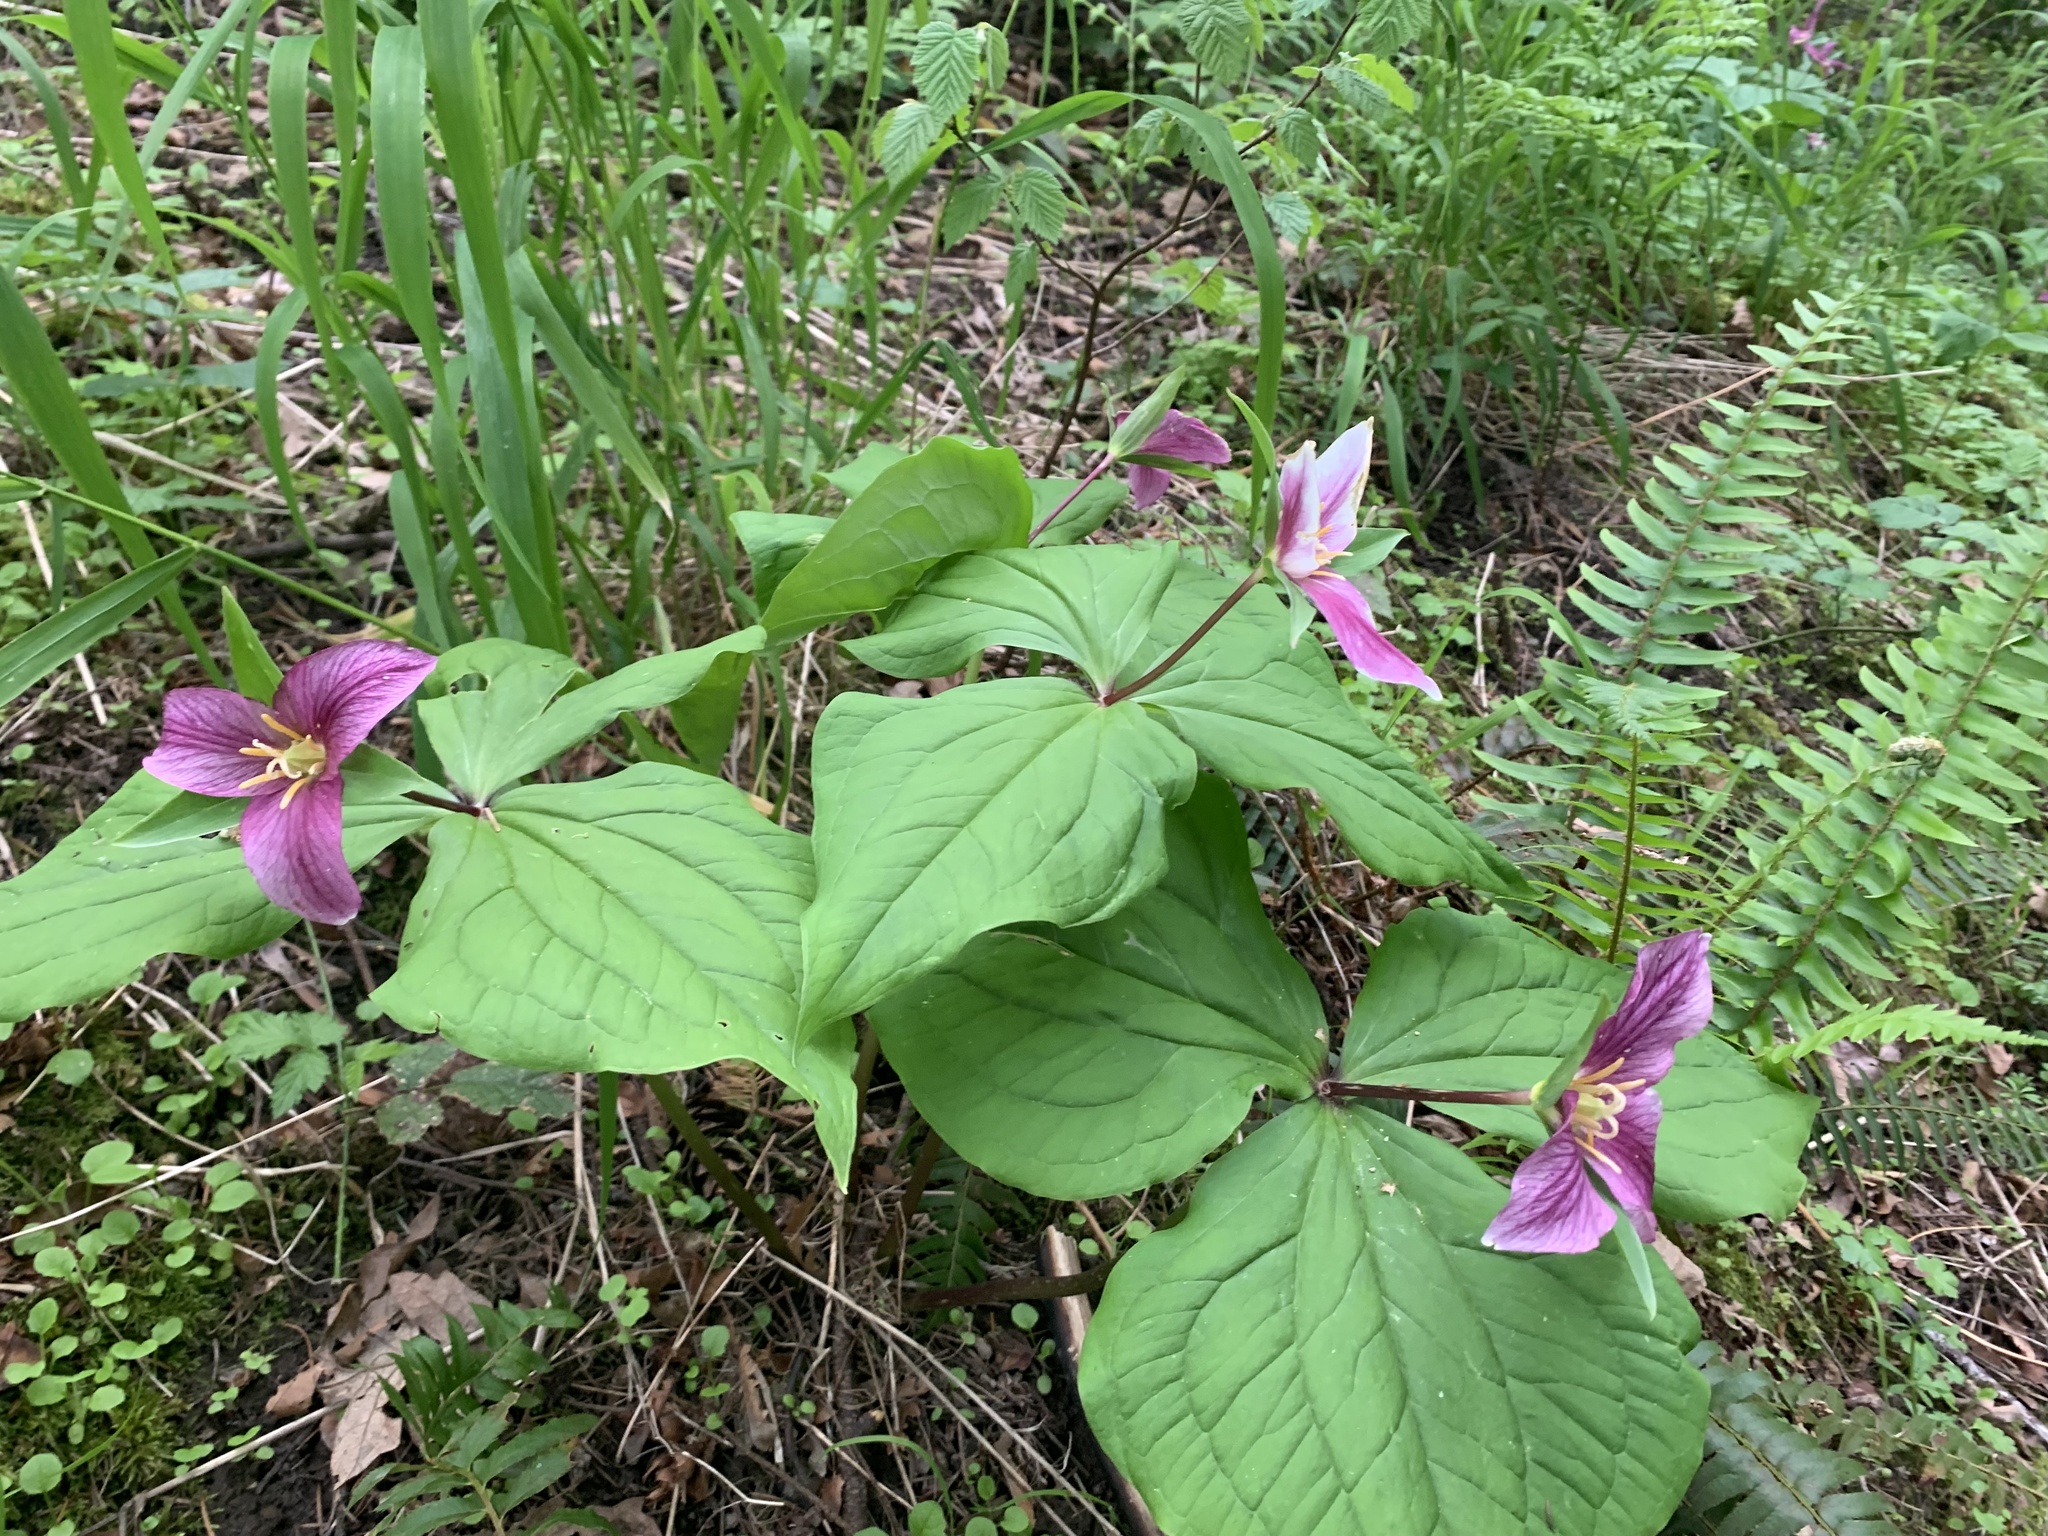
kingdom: Plantae
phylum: Tracheophyta
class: Liliopsida
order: Liliales
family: Melanthiaceae
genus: Trillium
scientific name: Trillium ovatum
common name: Pacific trillium
